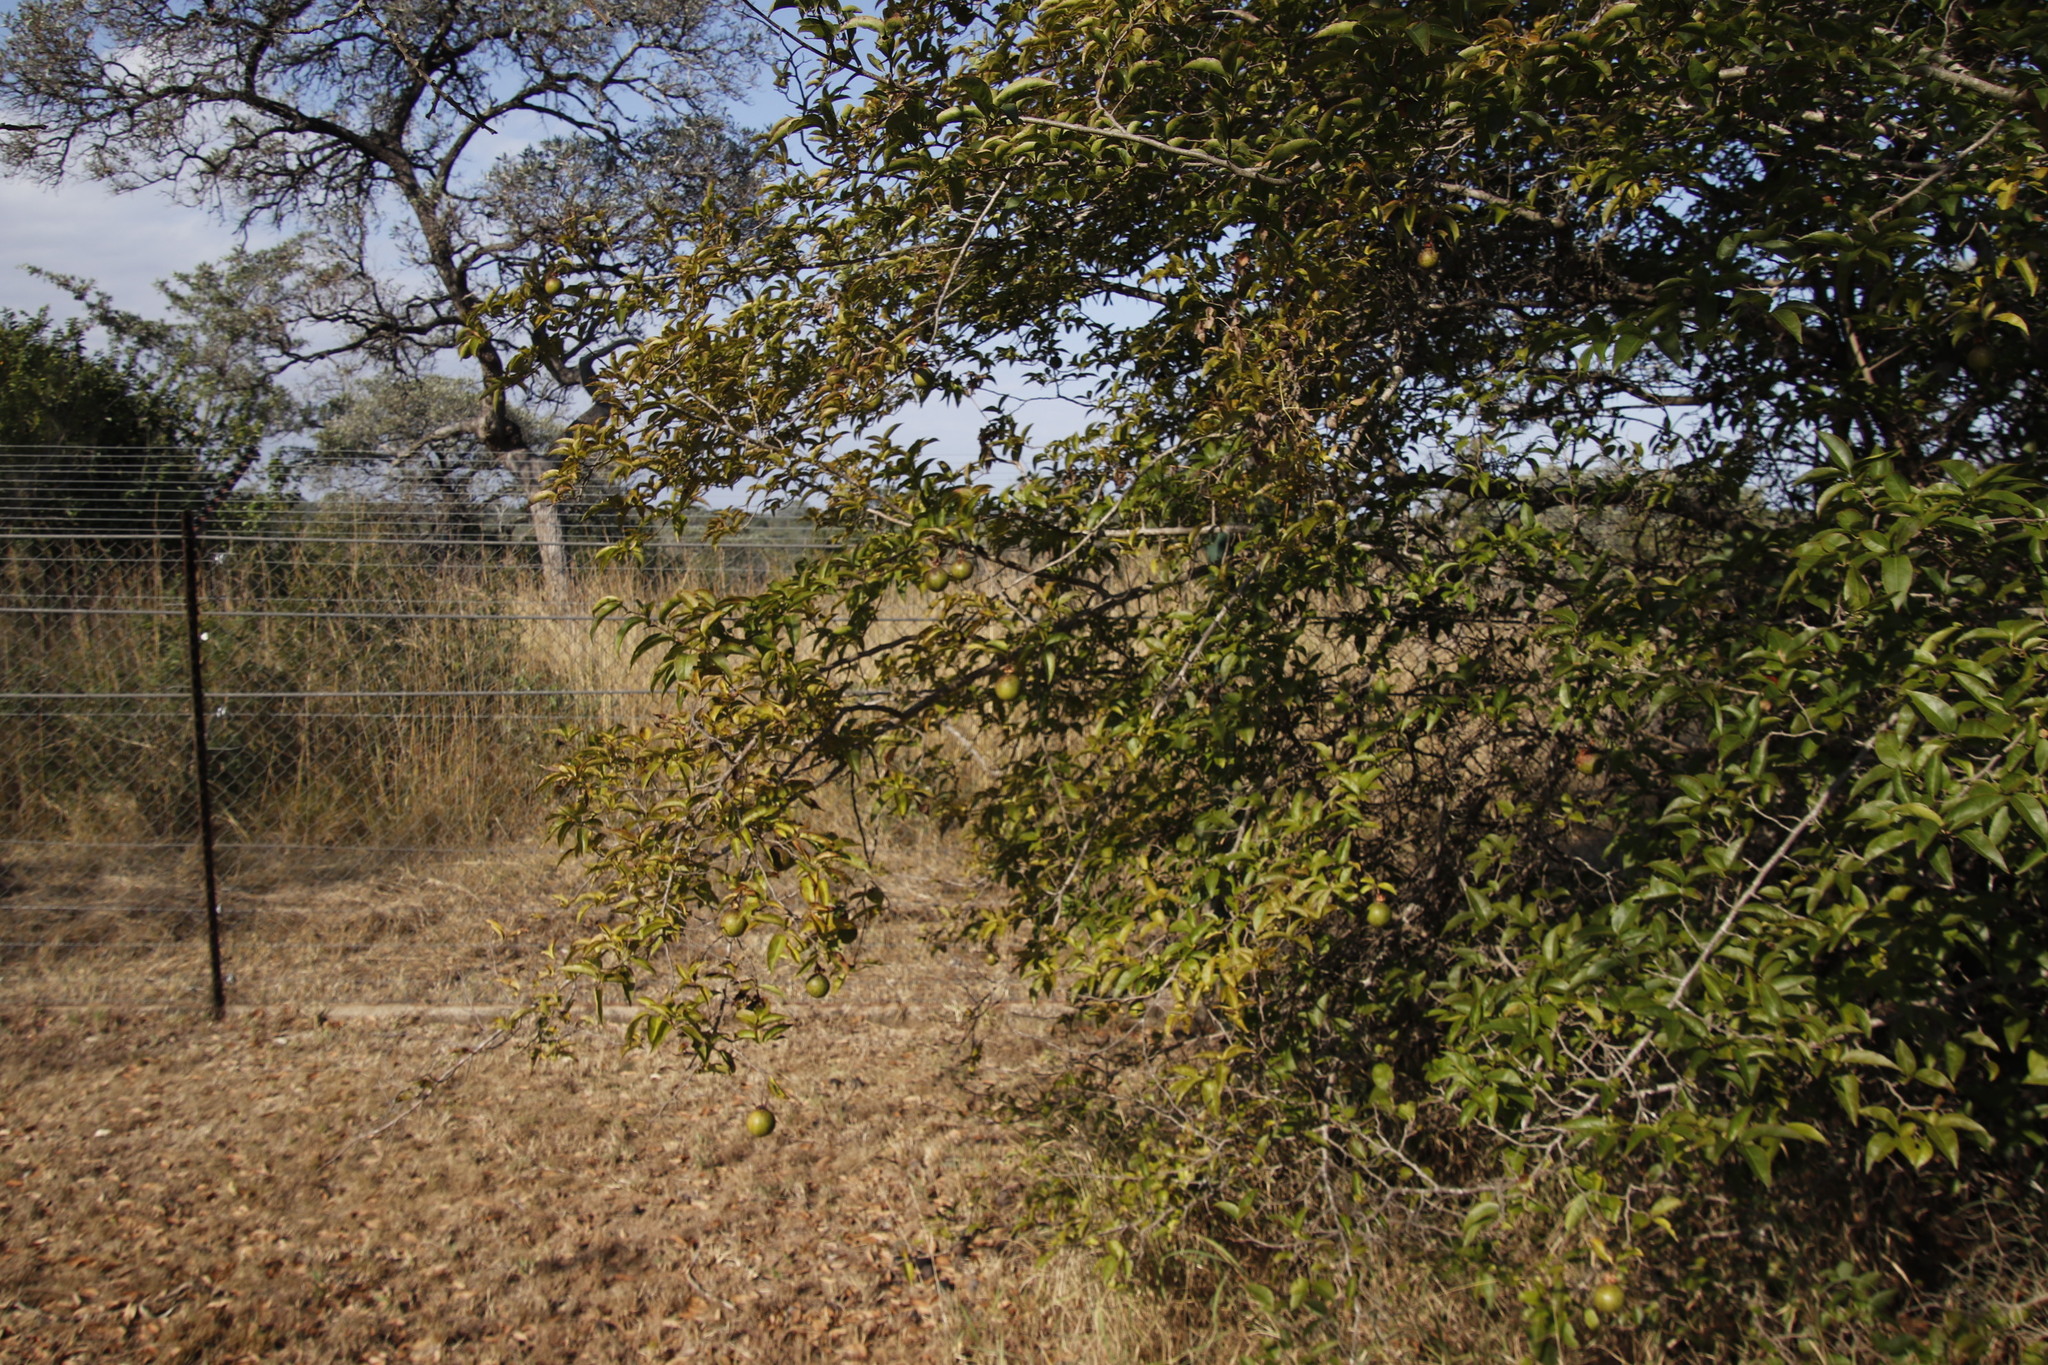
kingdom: Plantae
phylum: Tracheophyta
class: Magnoliopsida
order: Malpighiales
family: Salicaceae
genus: Oncoba
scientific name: Oncoba spinosa
